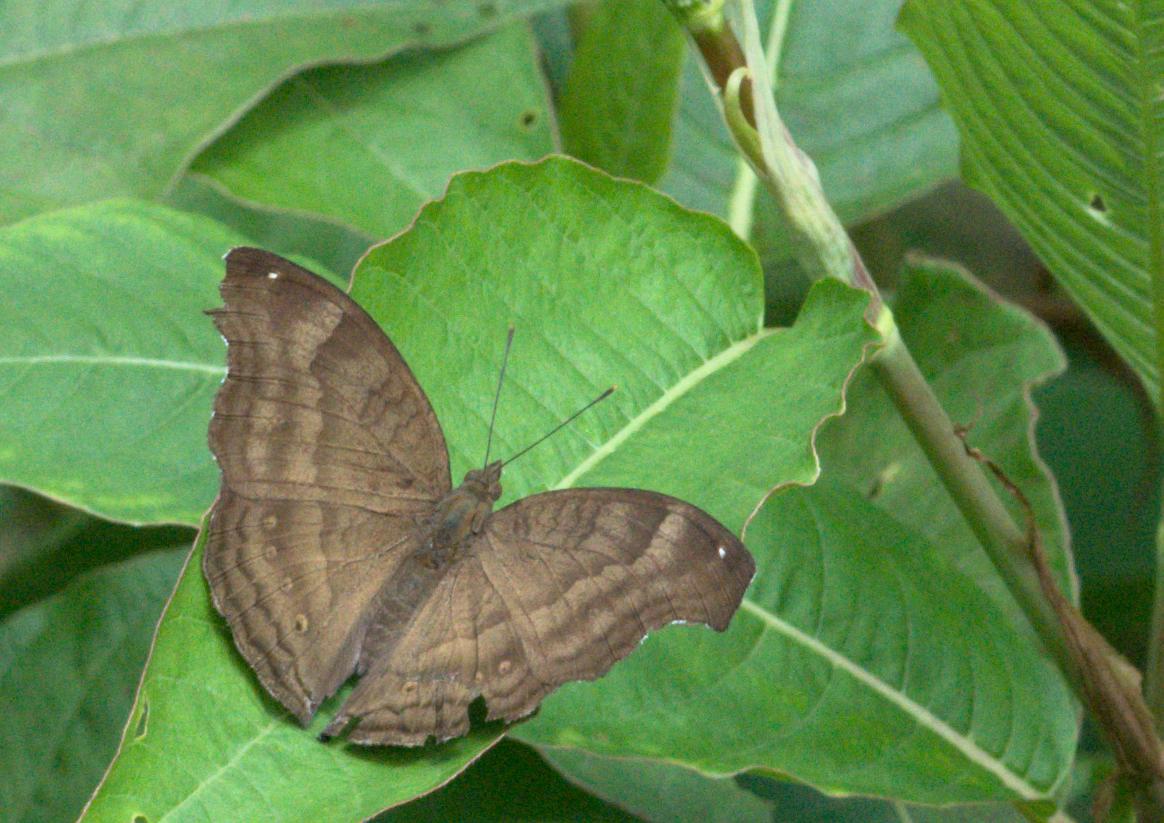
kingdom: Animalia
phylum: Arthropoda
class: Insecta
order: Lepidoptera
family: Nymphalidae
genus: Junonia
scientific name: Junonia iphita
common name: Chocolate pansy
